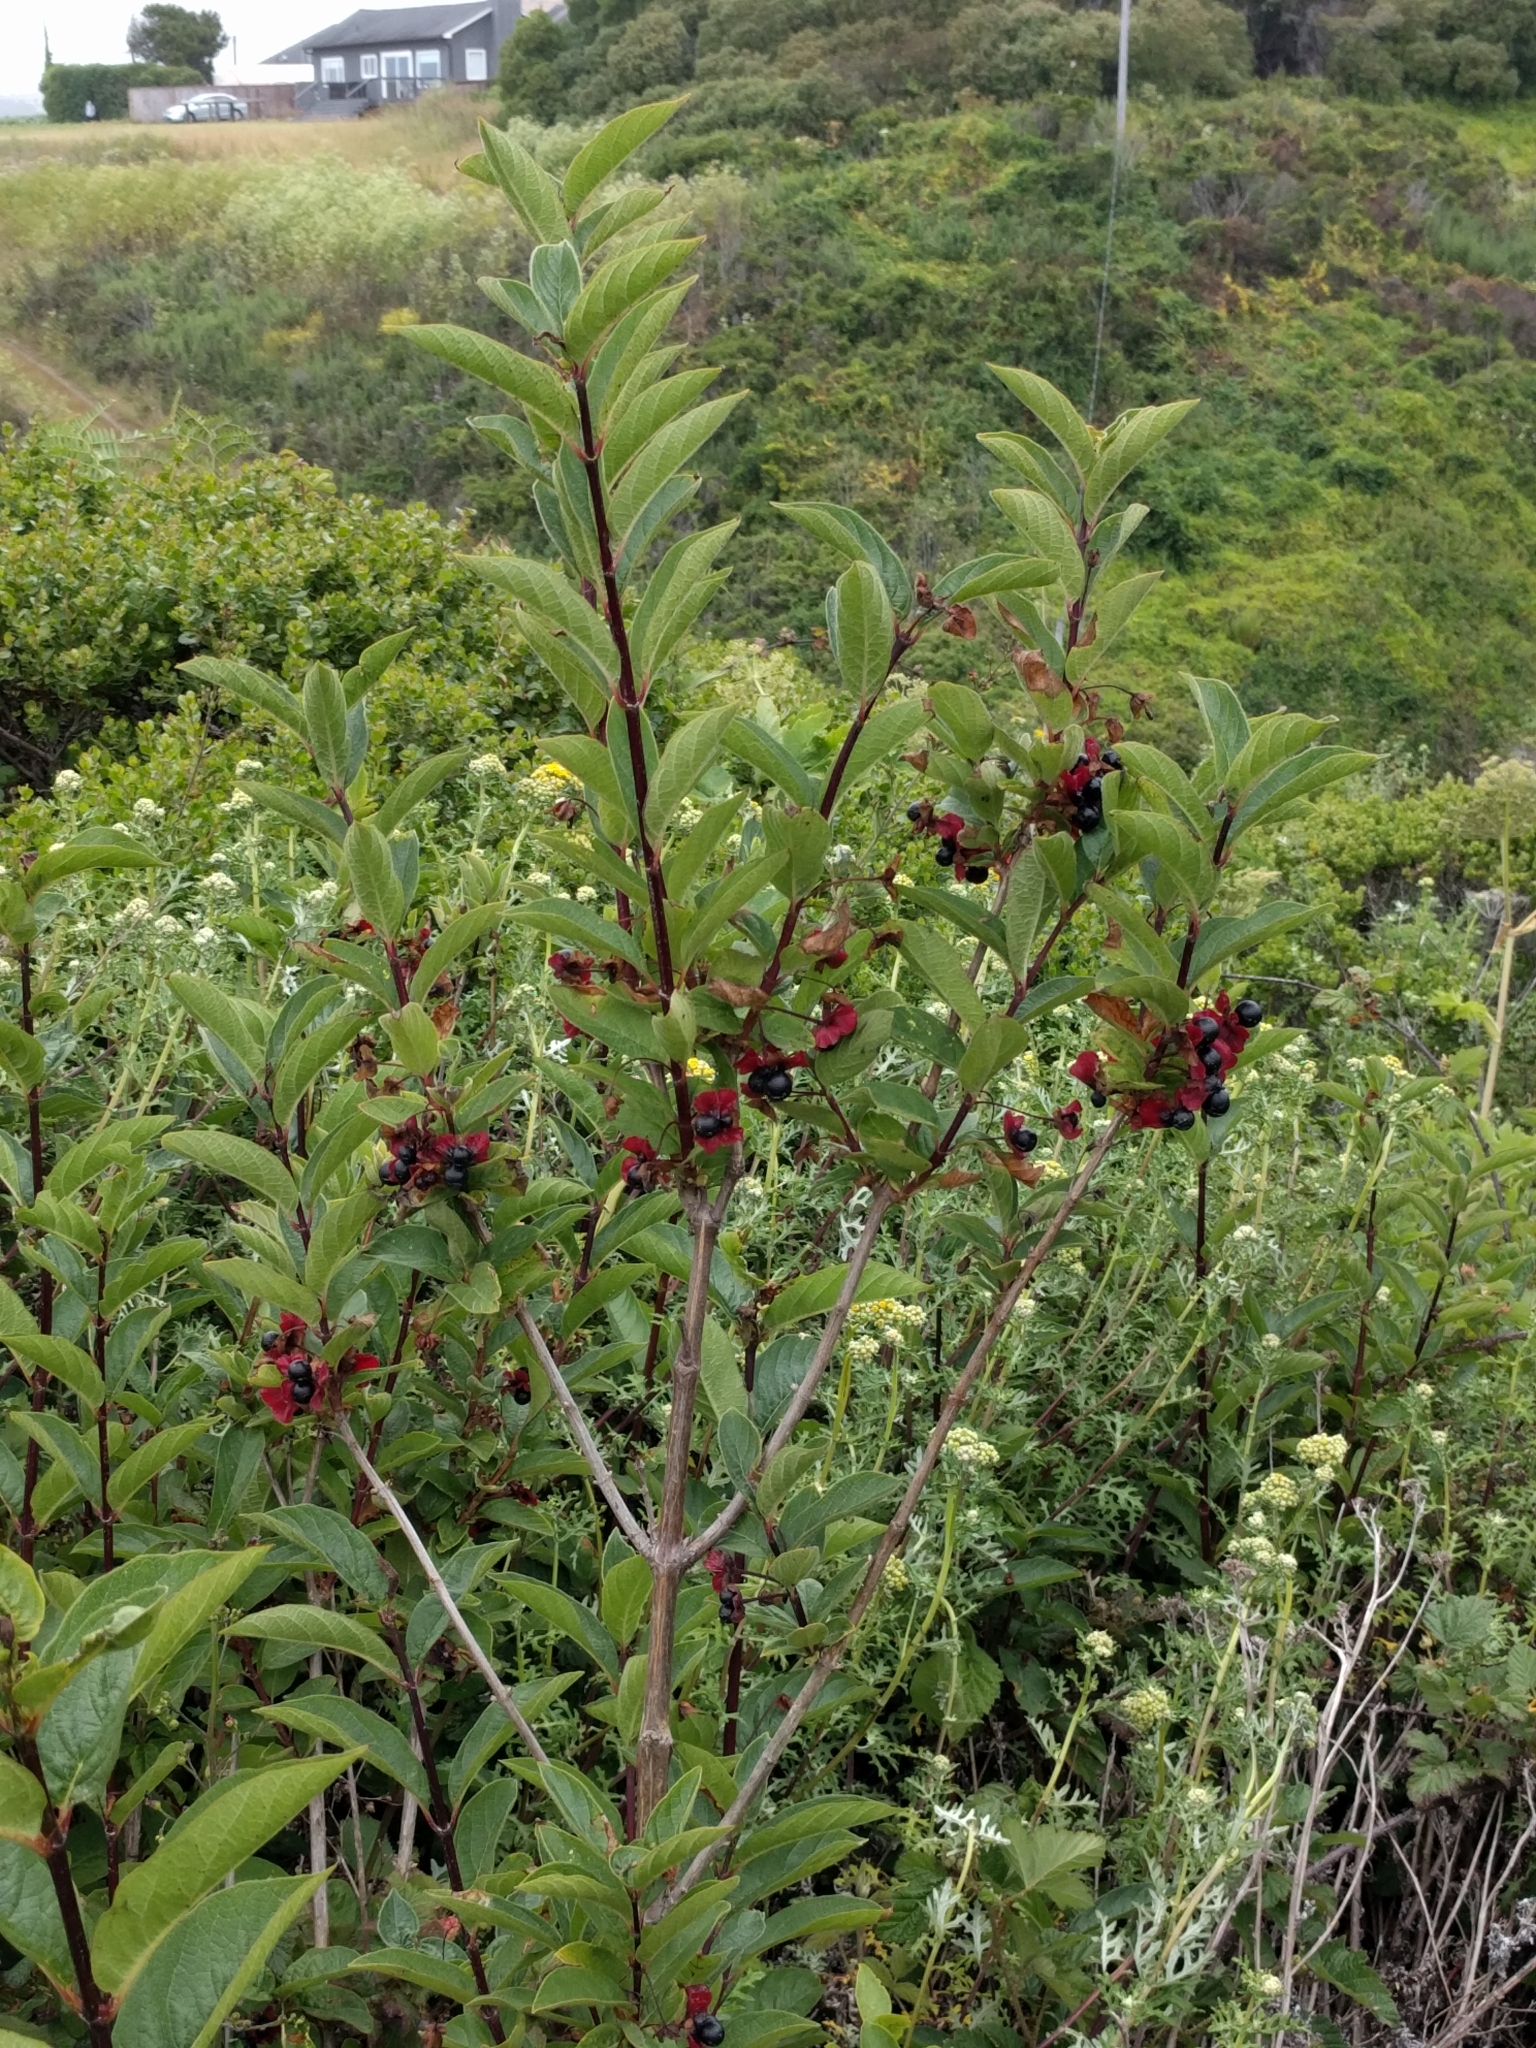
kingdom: Plantae
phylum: Tracheophyta
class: Magnoliopsida
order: Dipsacales
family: Caprifoliaceae
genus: Lonicera
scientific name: Lonicera involucrata
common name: Californian honeysuckle
